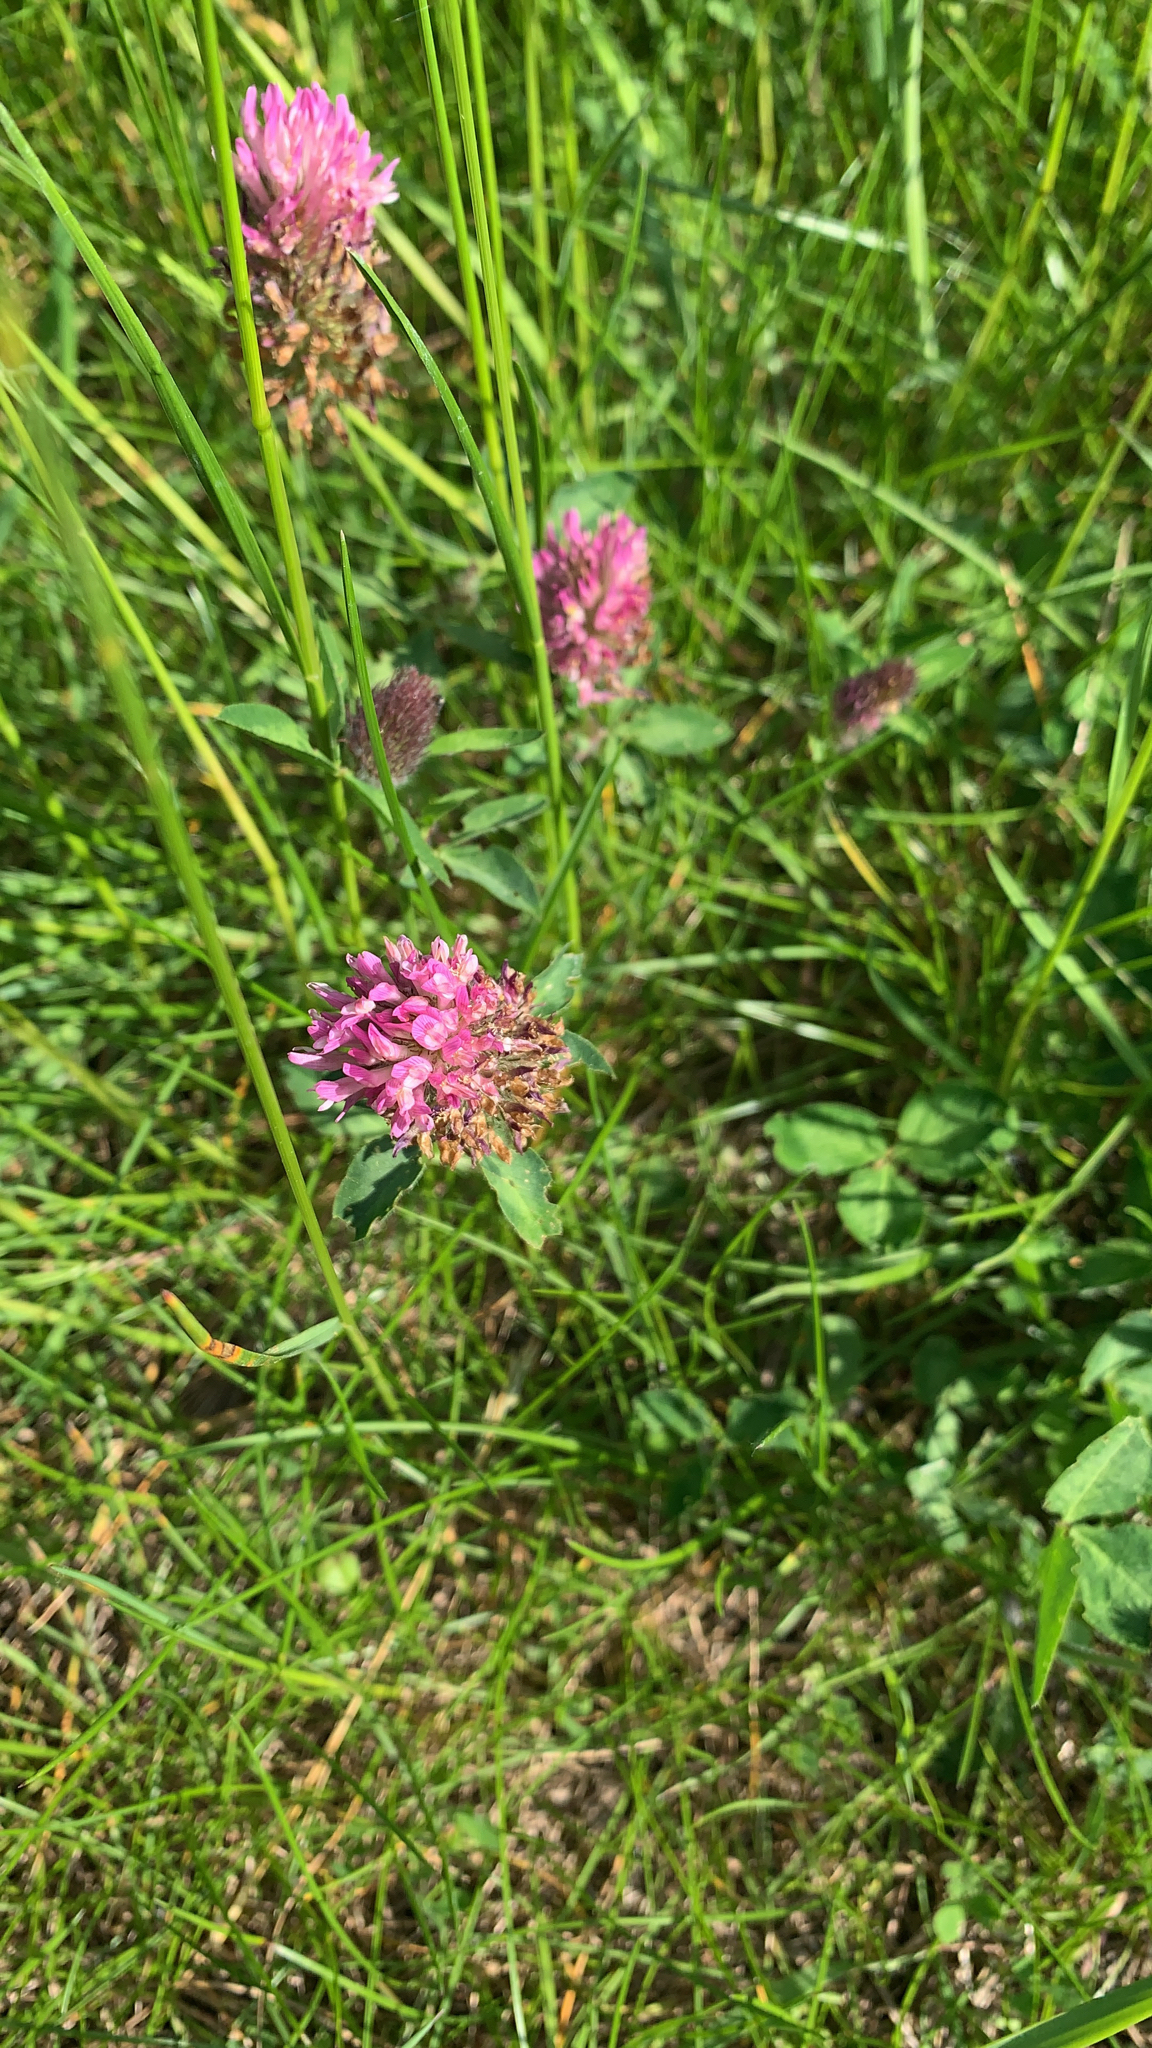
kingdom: Plantae
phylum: Tracheophyta
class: Magnoliopsida
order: Fabales
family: Fabaceae
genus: Trifolium
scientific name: Trifolium pratense
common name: Red clover
